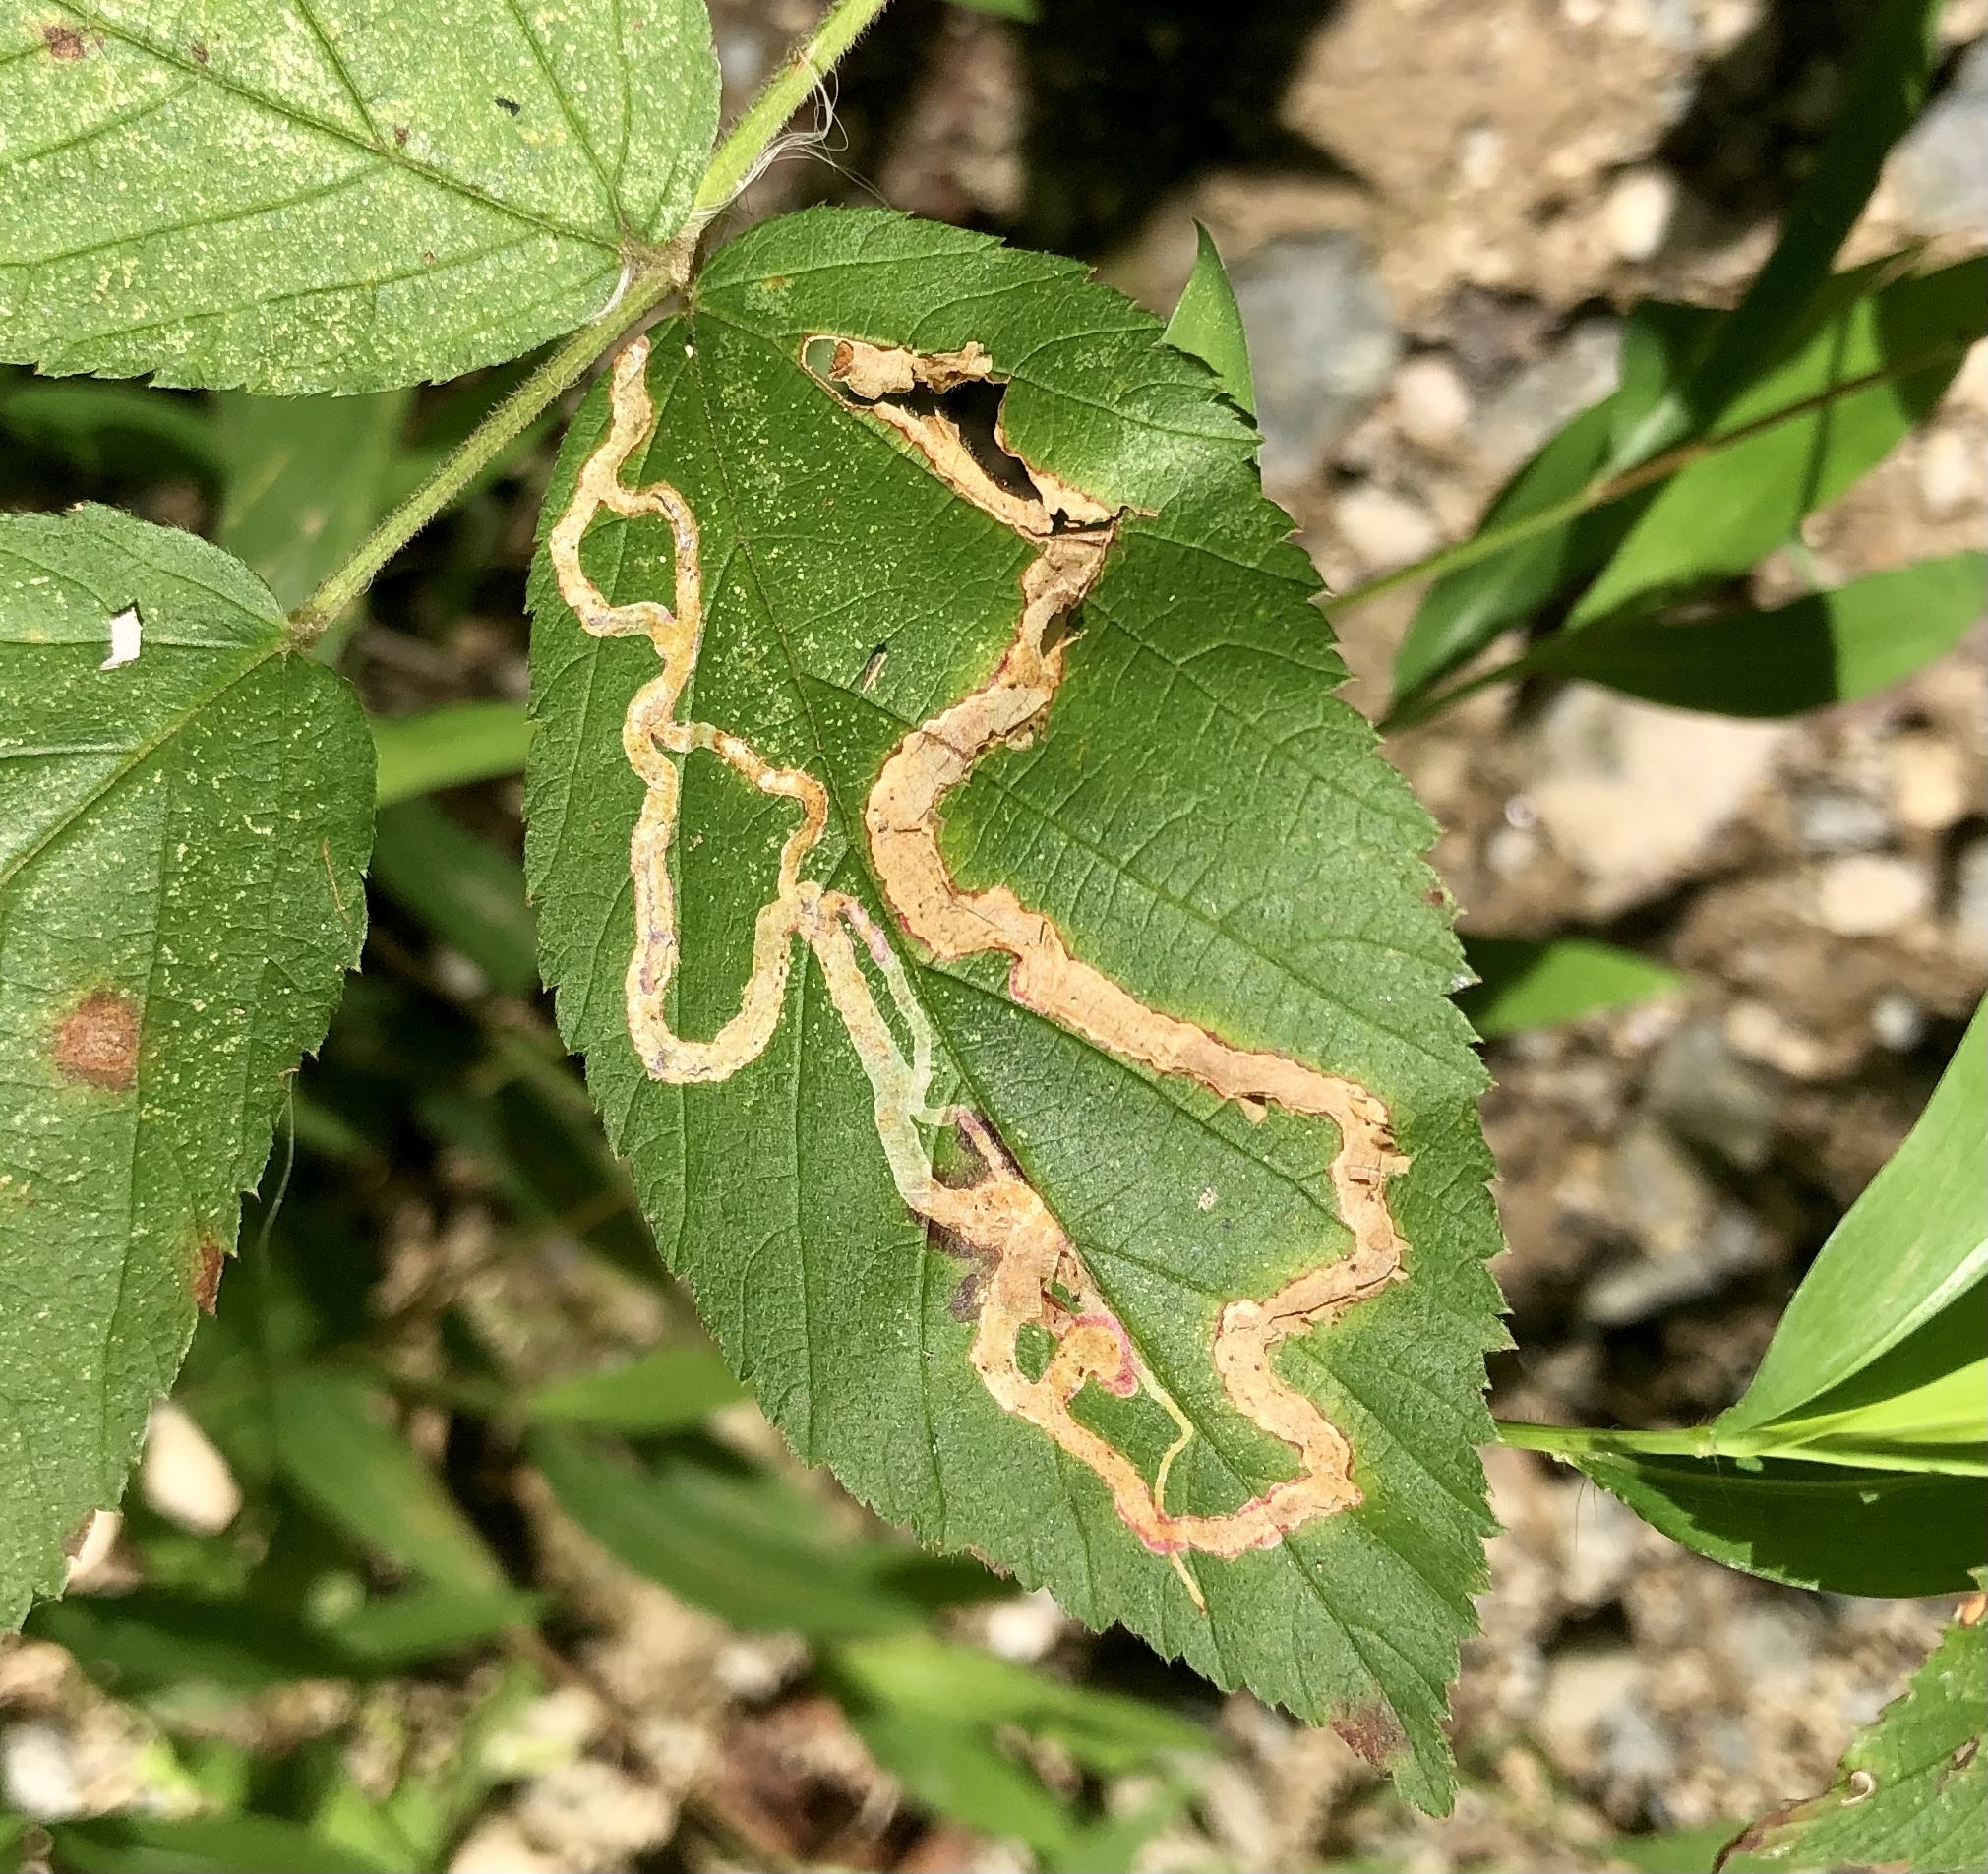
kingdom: Animalia
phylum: Arthropoda
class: Insecta
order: Diptera
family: Agromyzidae
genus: Agromyza
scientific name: Agromyza vockerothi
